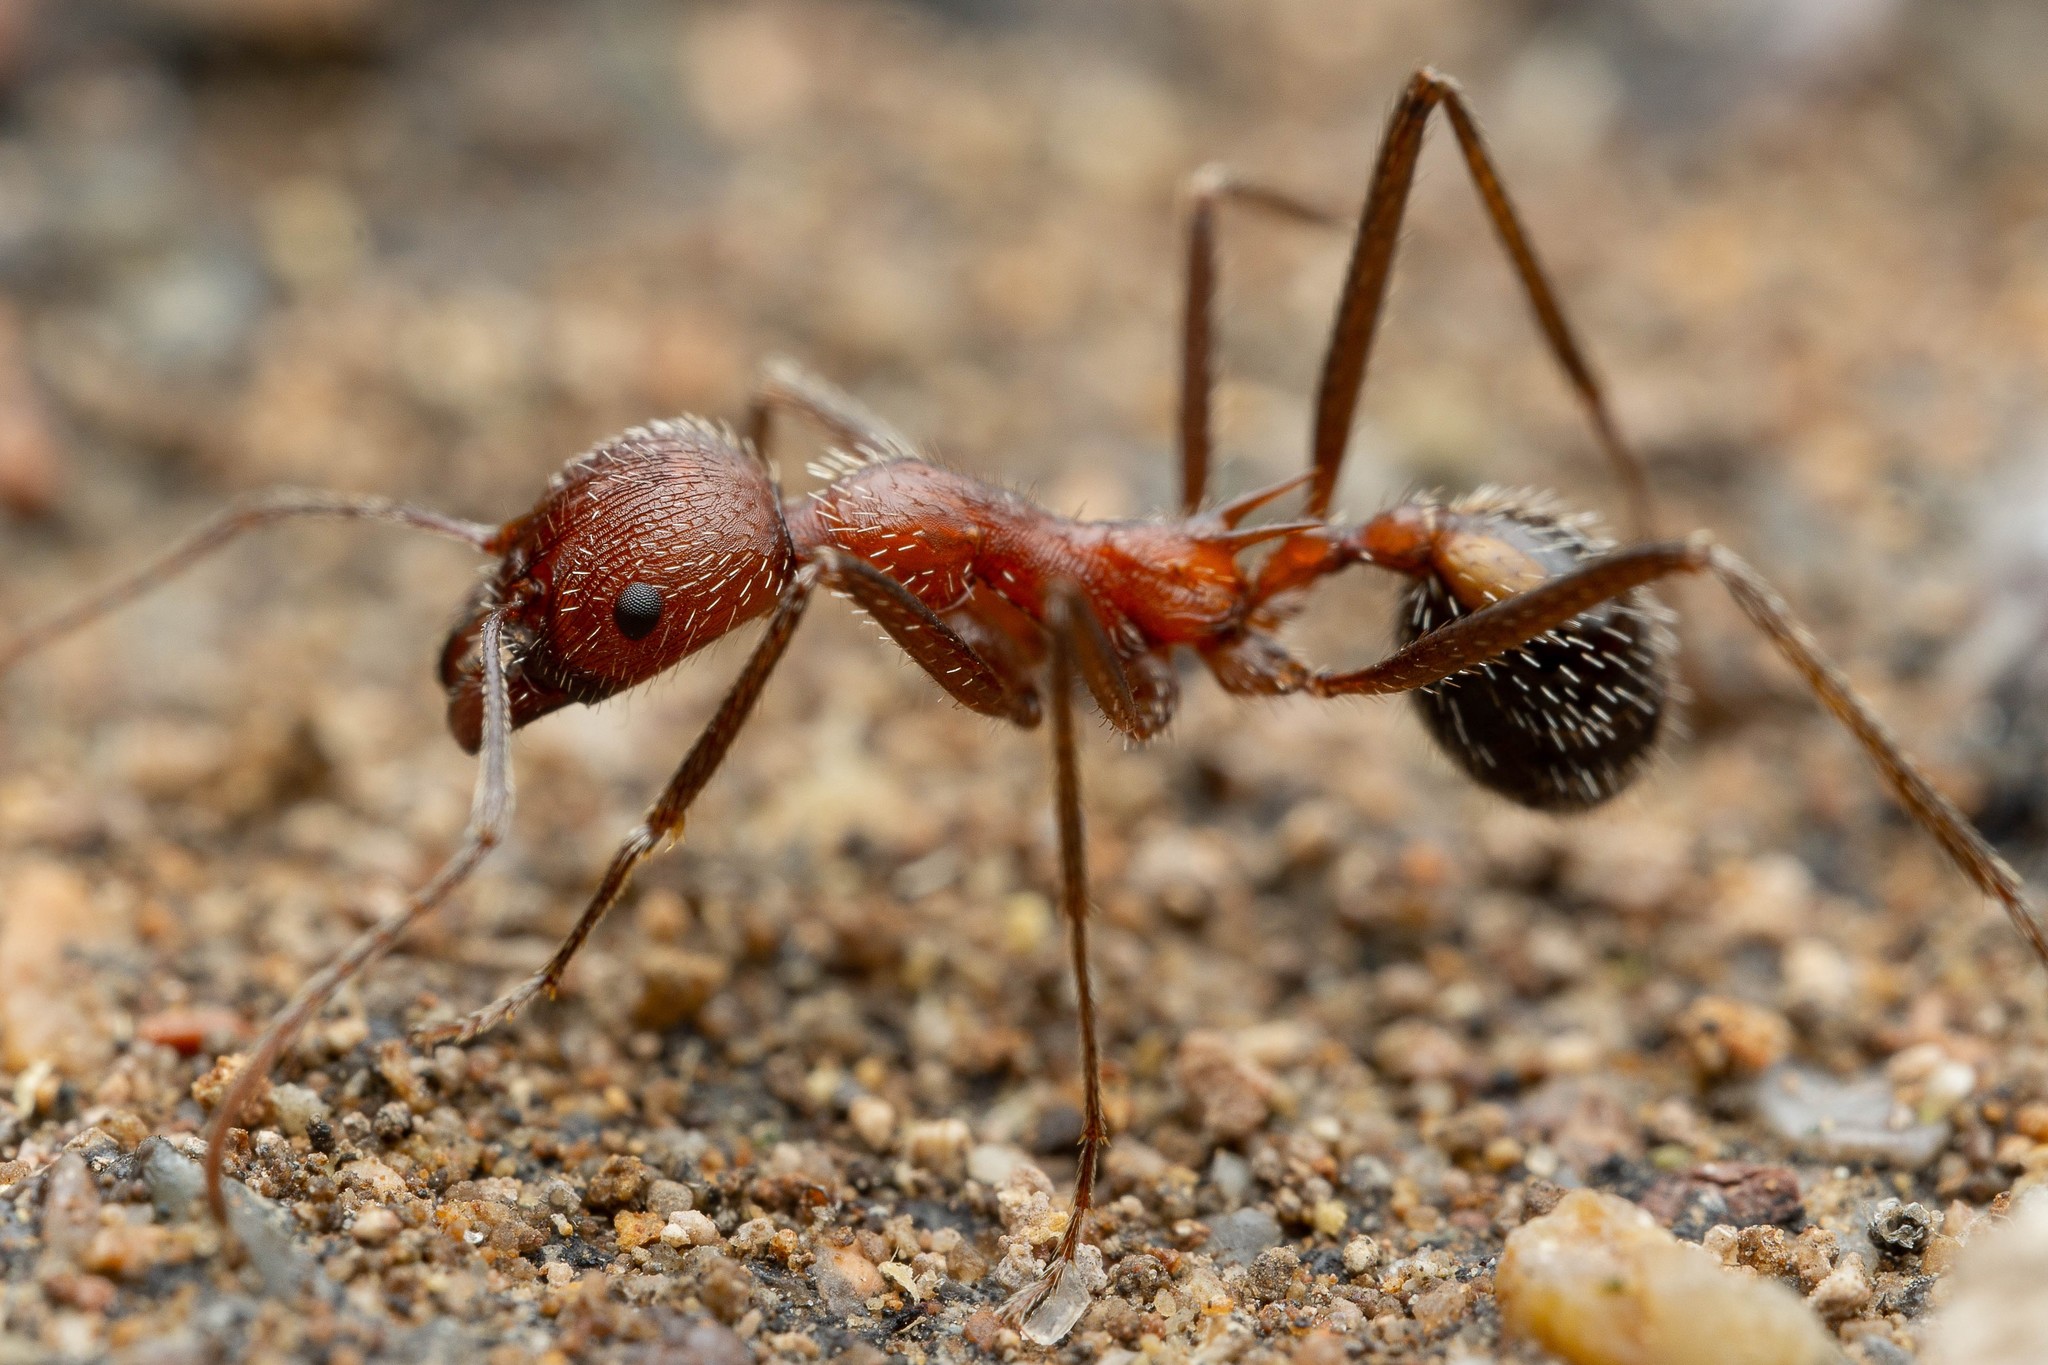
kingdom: Animalia
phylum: Arthropoda
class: Insecta
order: Hymenoptera
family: Formicidae
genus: Novomessor
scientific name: Novomessor albisetosa
